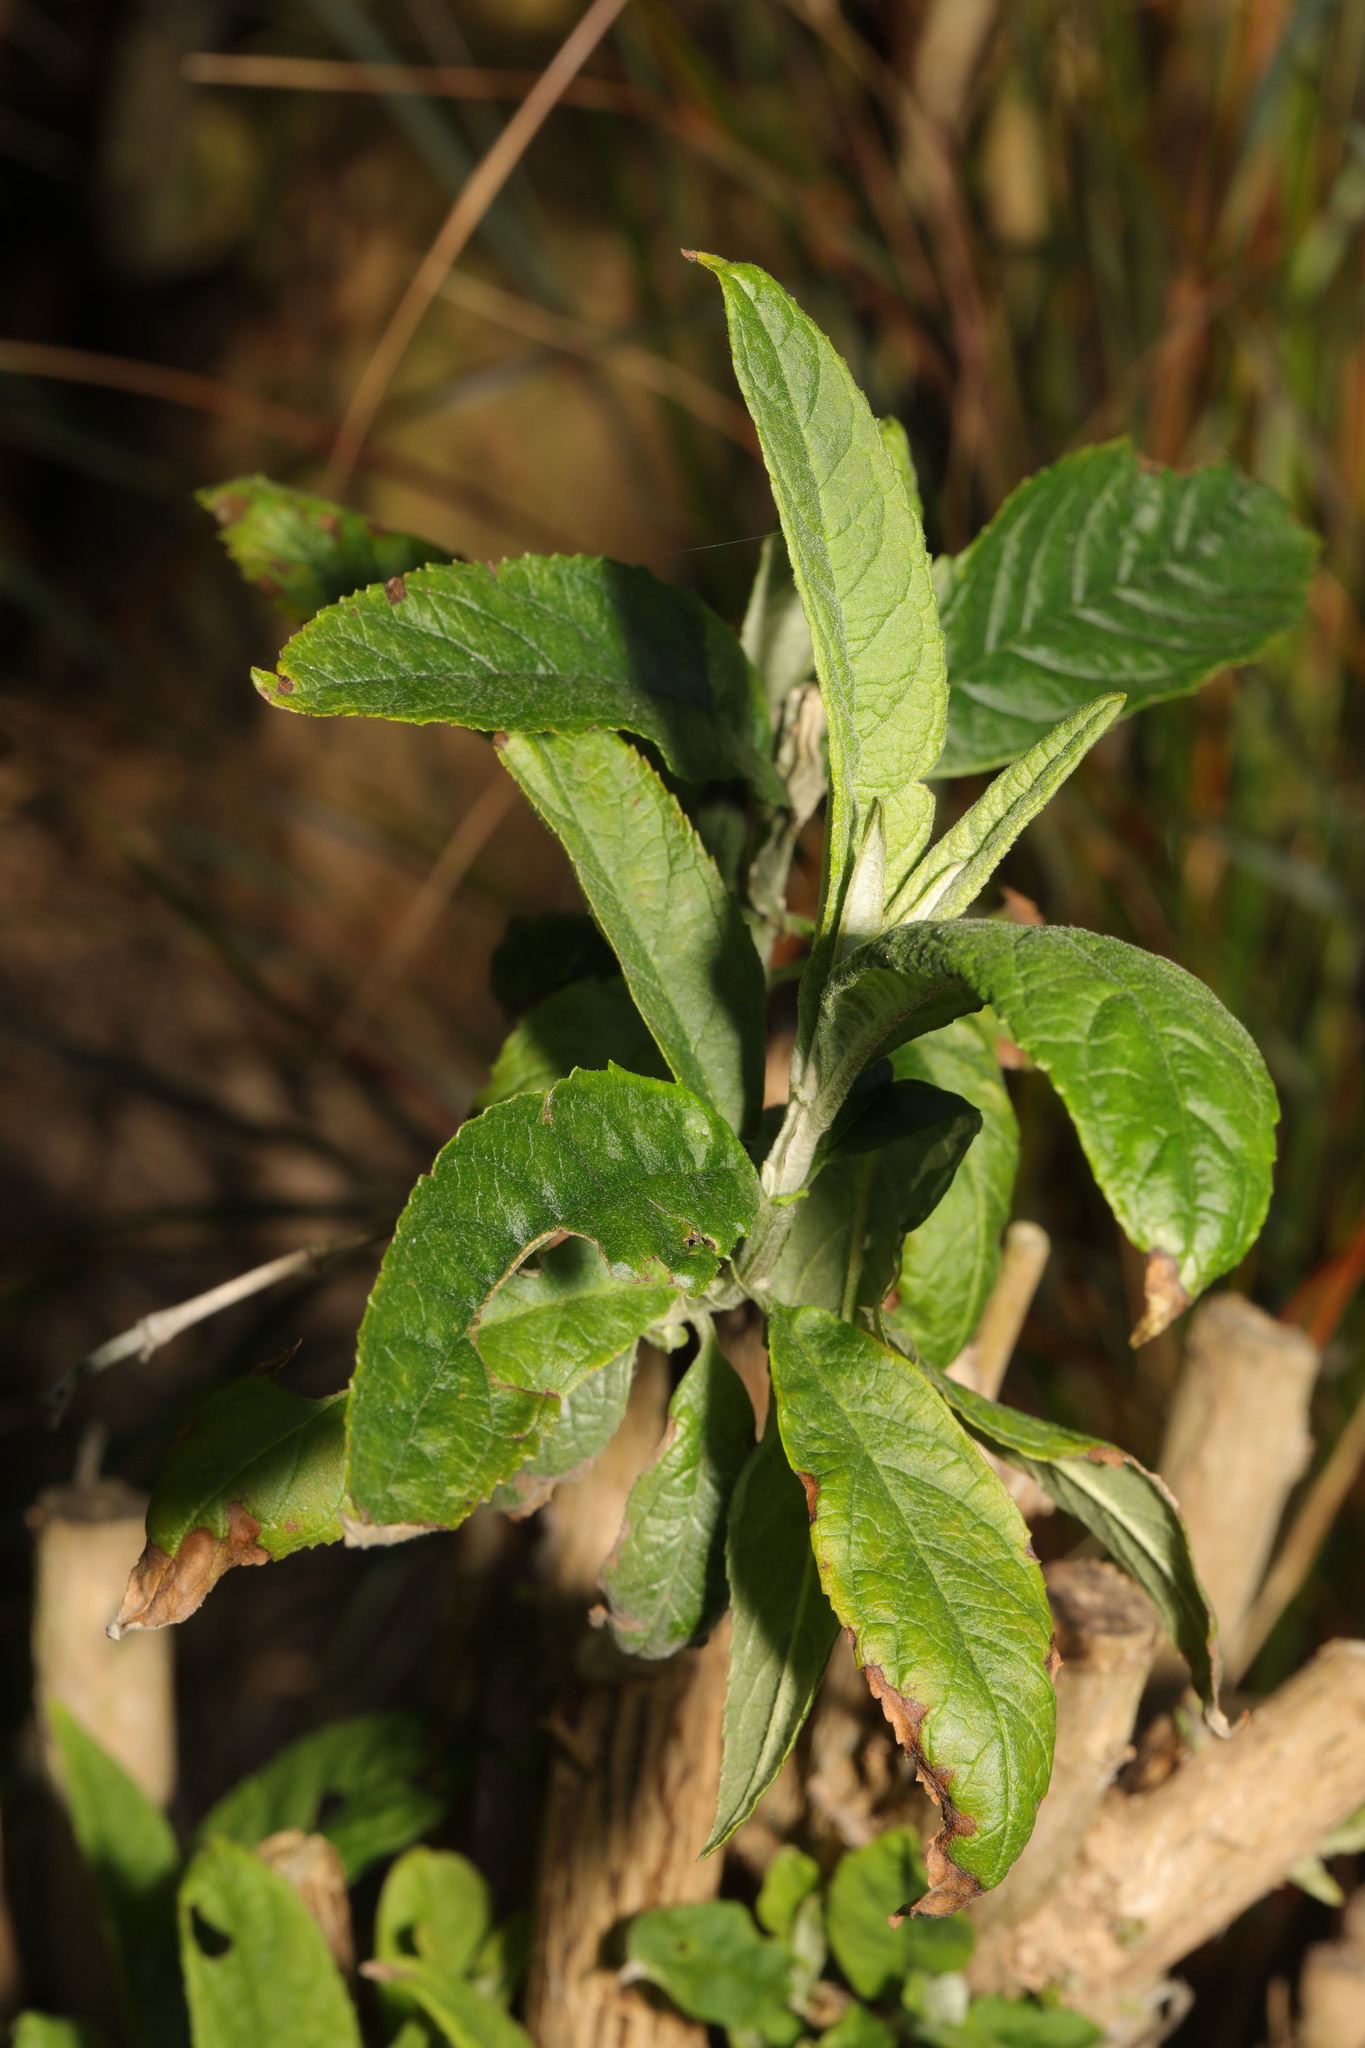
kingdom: Plantae
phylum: Tracheophyta
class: Magnoliopsida
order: Lamiales
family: Scrophulariaceae
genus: Buddleja
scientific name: Buddleja davidii
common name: Butterfly-bush
